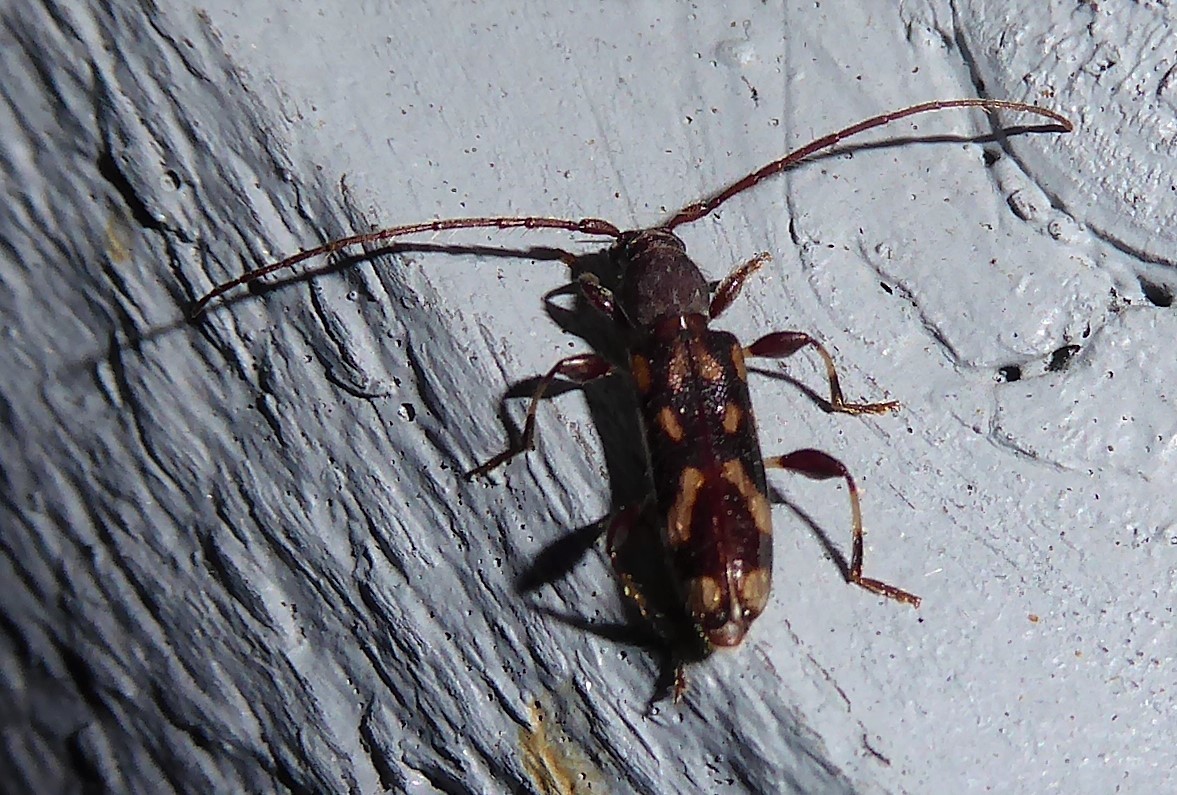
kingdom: Animalia
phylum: Arthropoda
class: Insecta
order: Coleoptera
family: Cerambycidae
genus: Bethelium
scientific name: Bethelium signiferum
